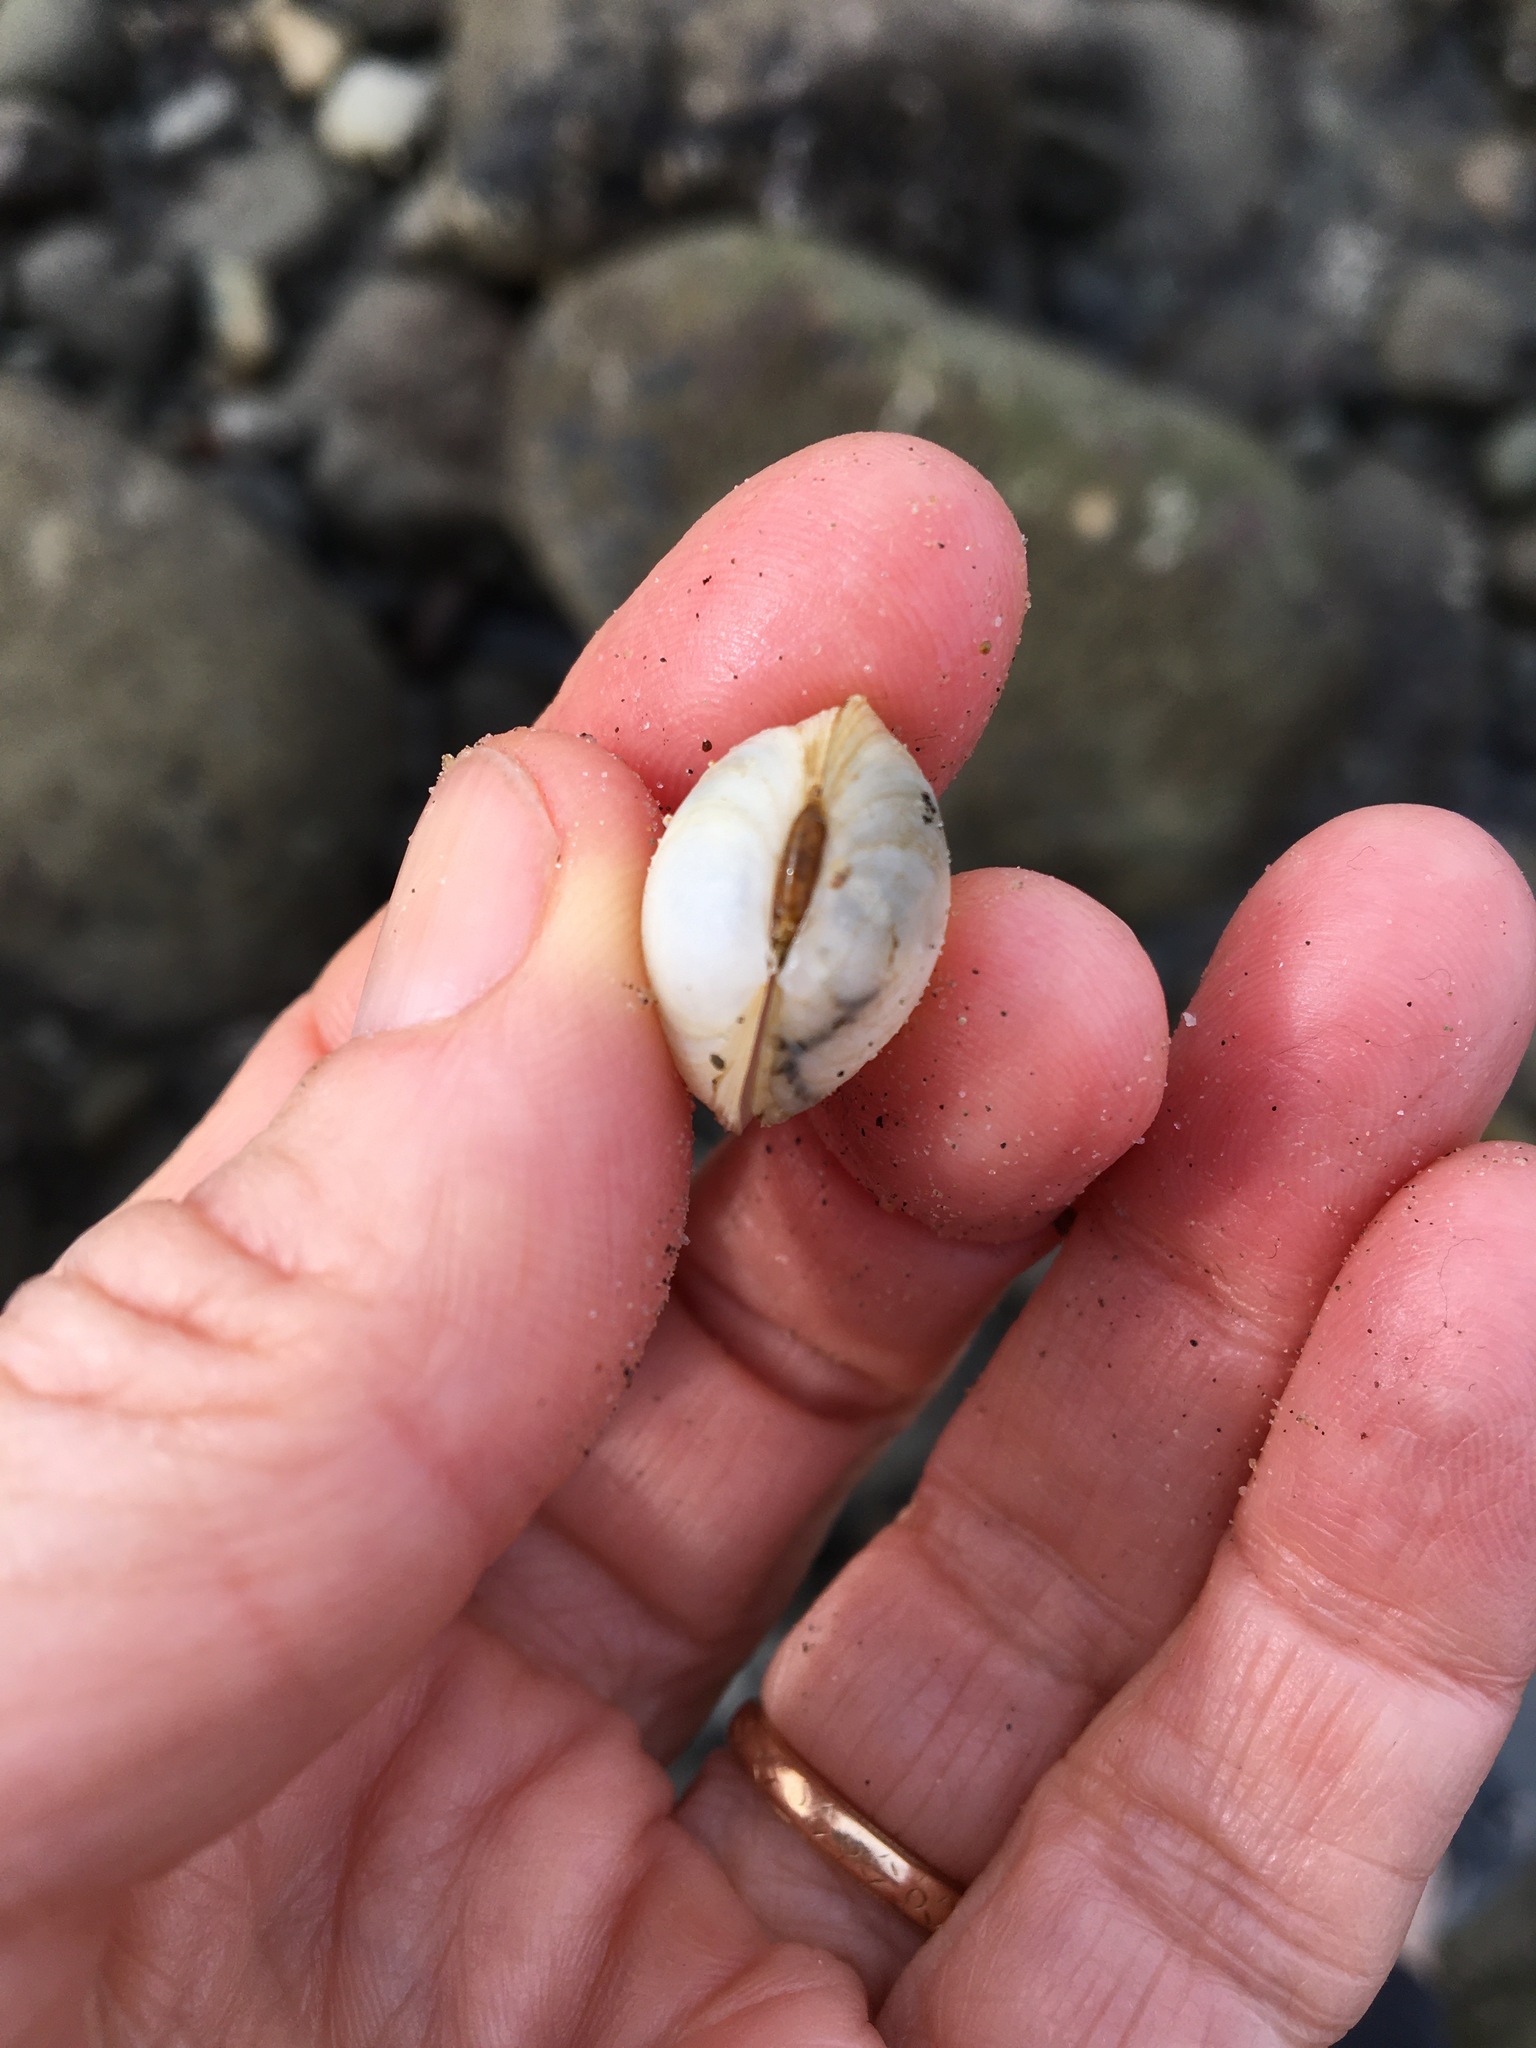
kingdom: Animalia
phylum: Mollusca
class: Bivalvia
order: Venerida
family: Ungulinidae
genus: Zemysina
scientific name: Zemysina orbella
